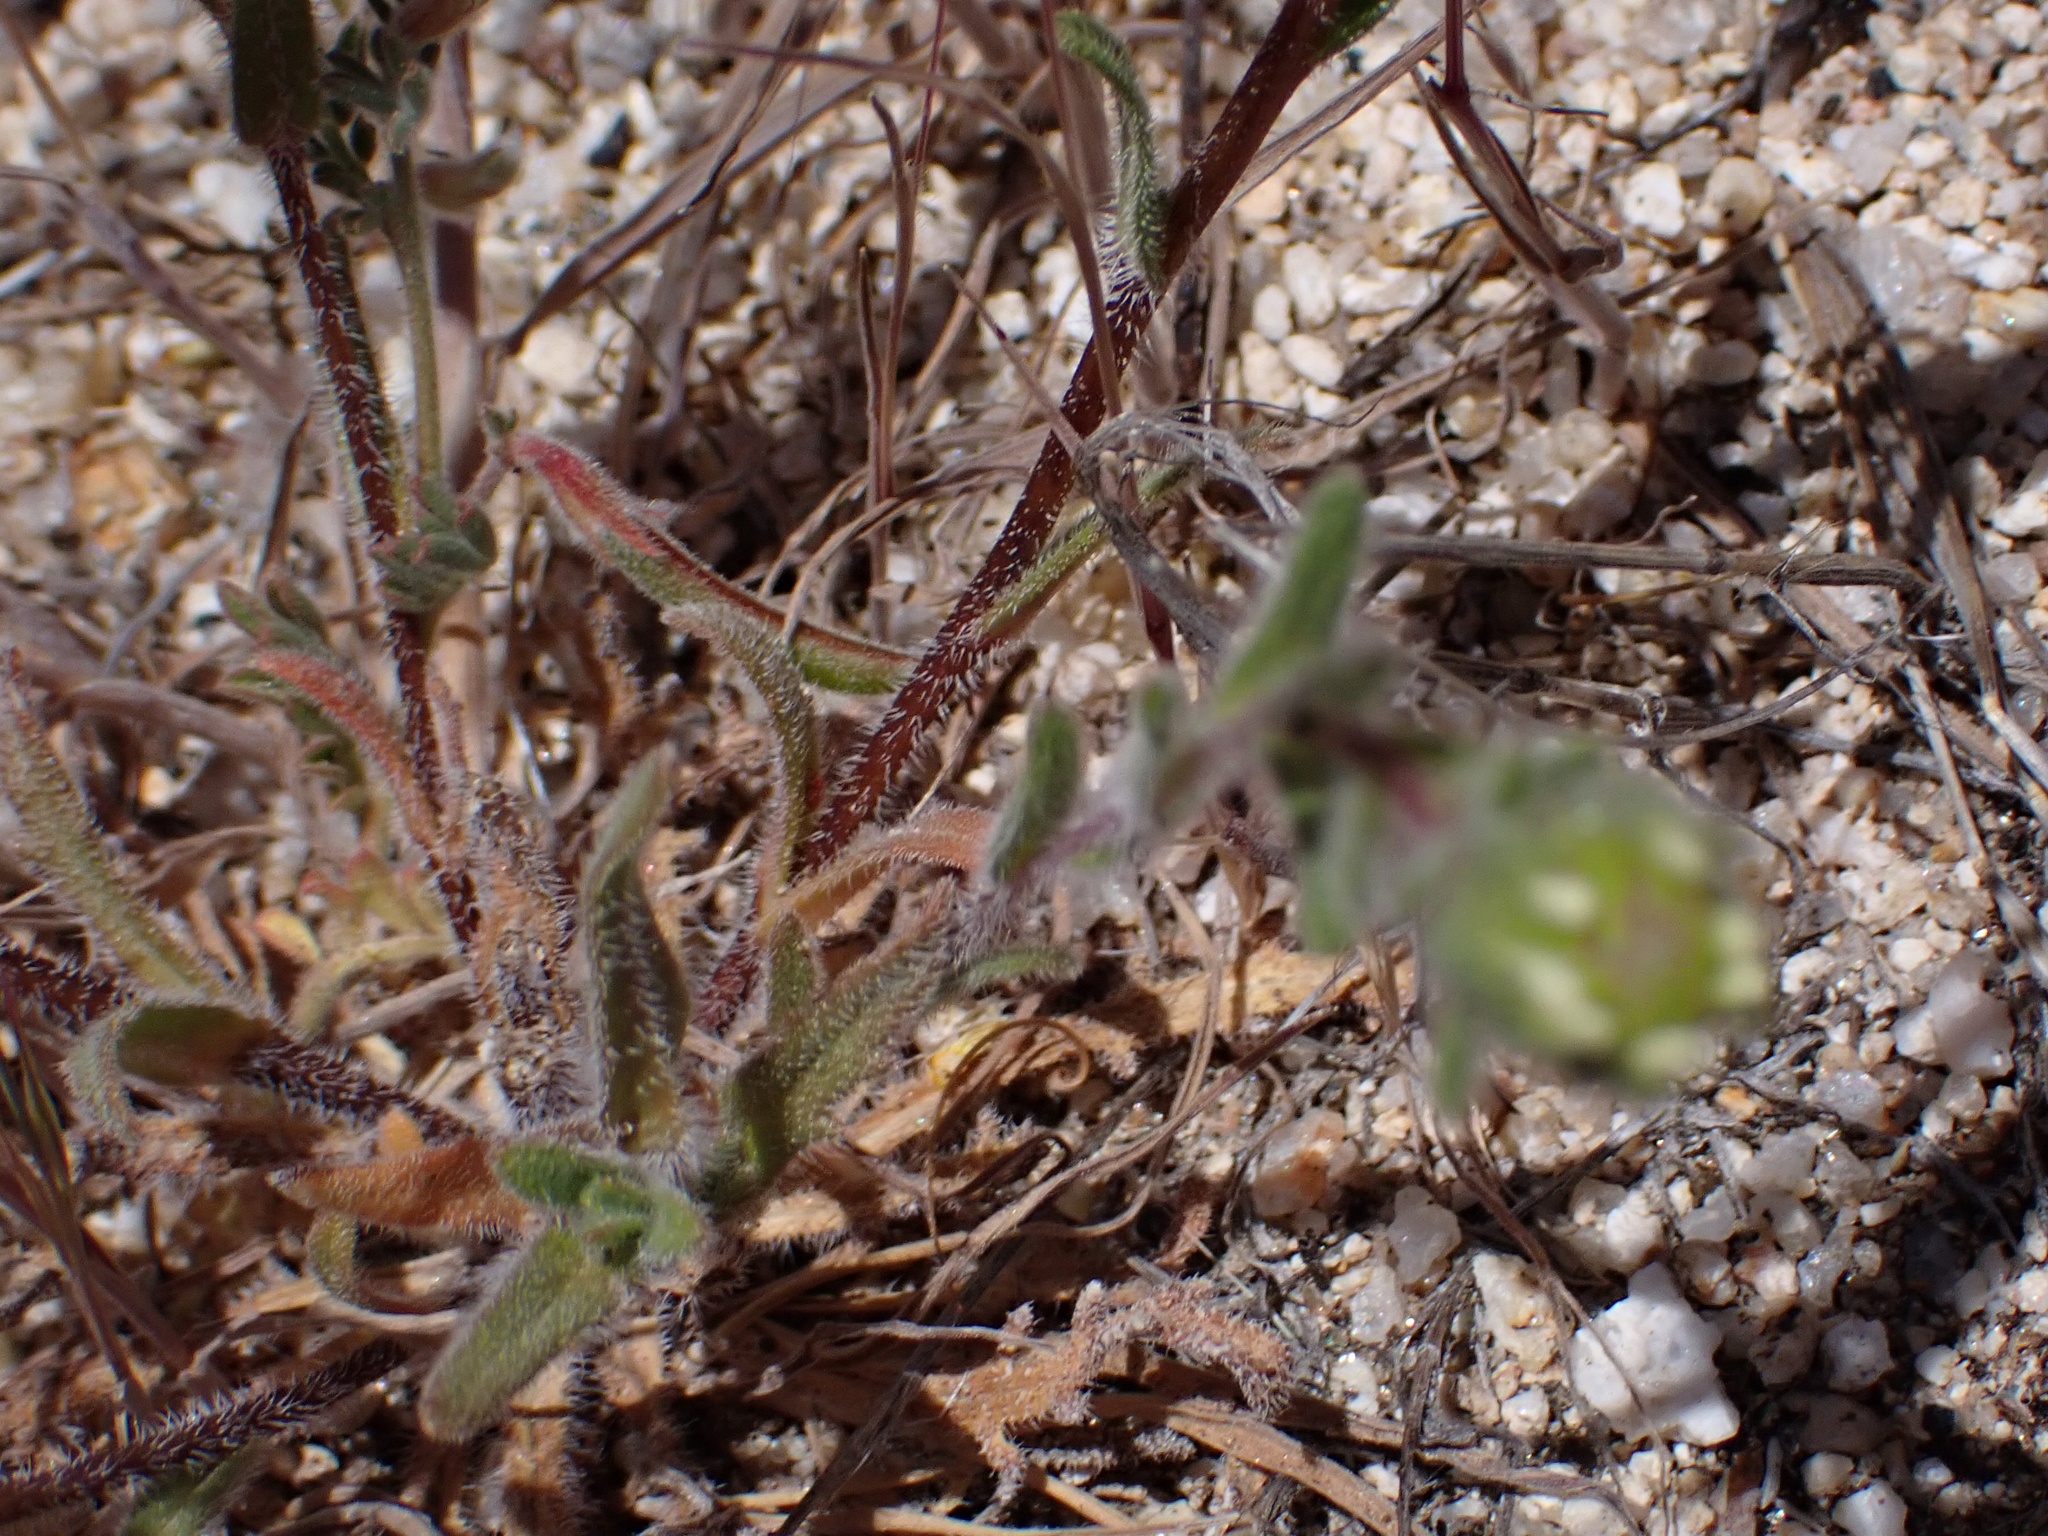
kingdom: Plantae
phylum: Tracheophyta
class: Magnoliopsida
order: Asterales
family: Asteraceae
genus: Layia
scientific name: Layia glandulosa
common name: White layia
